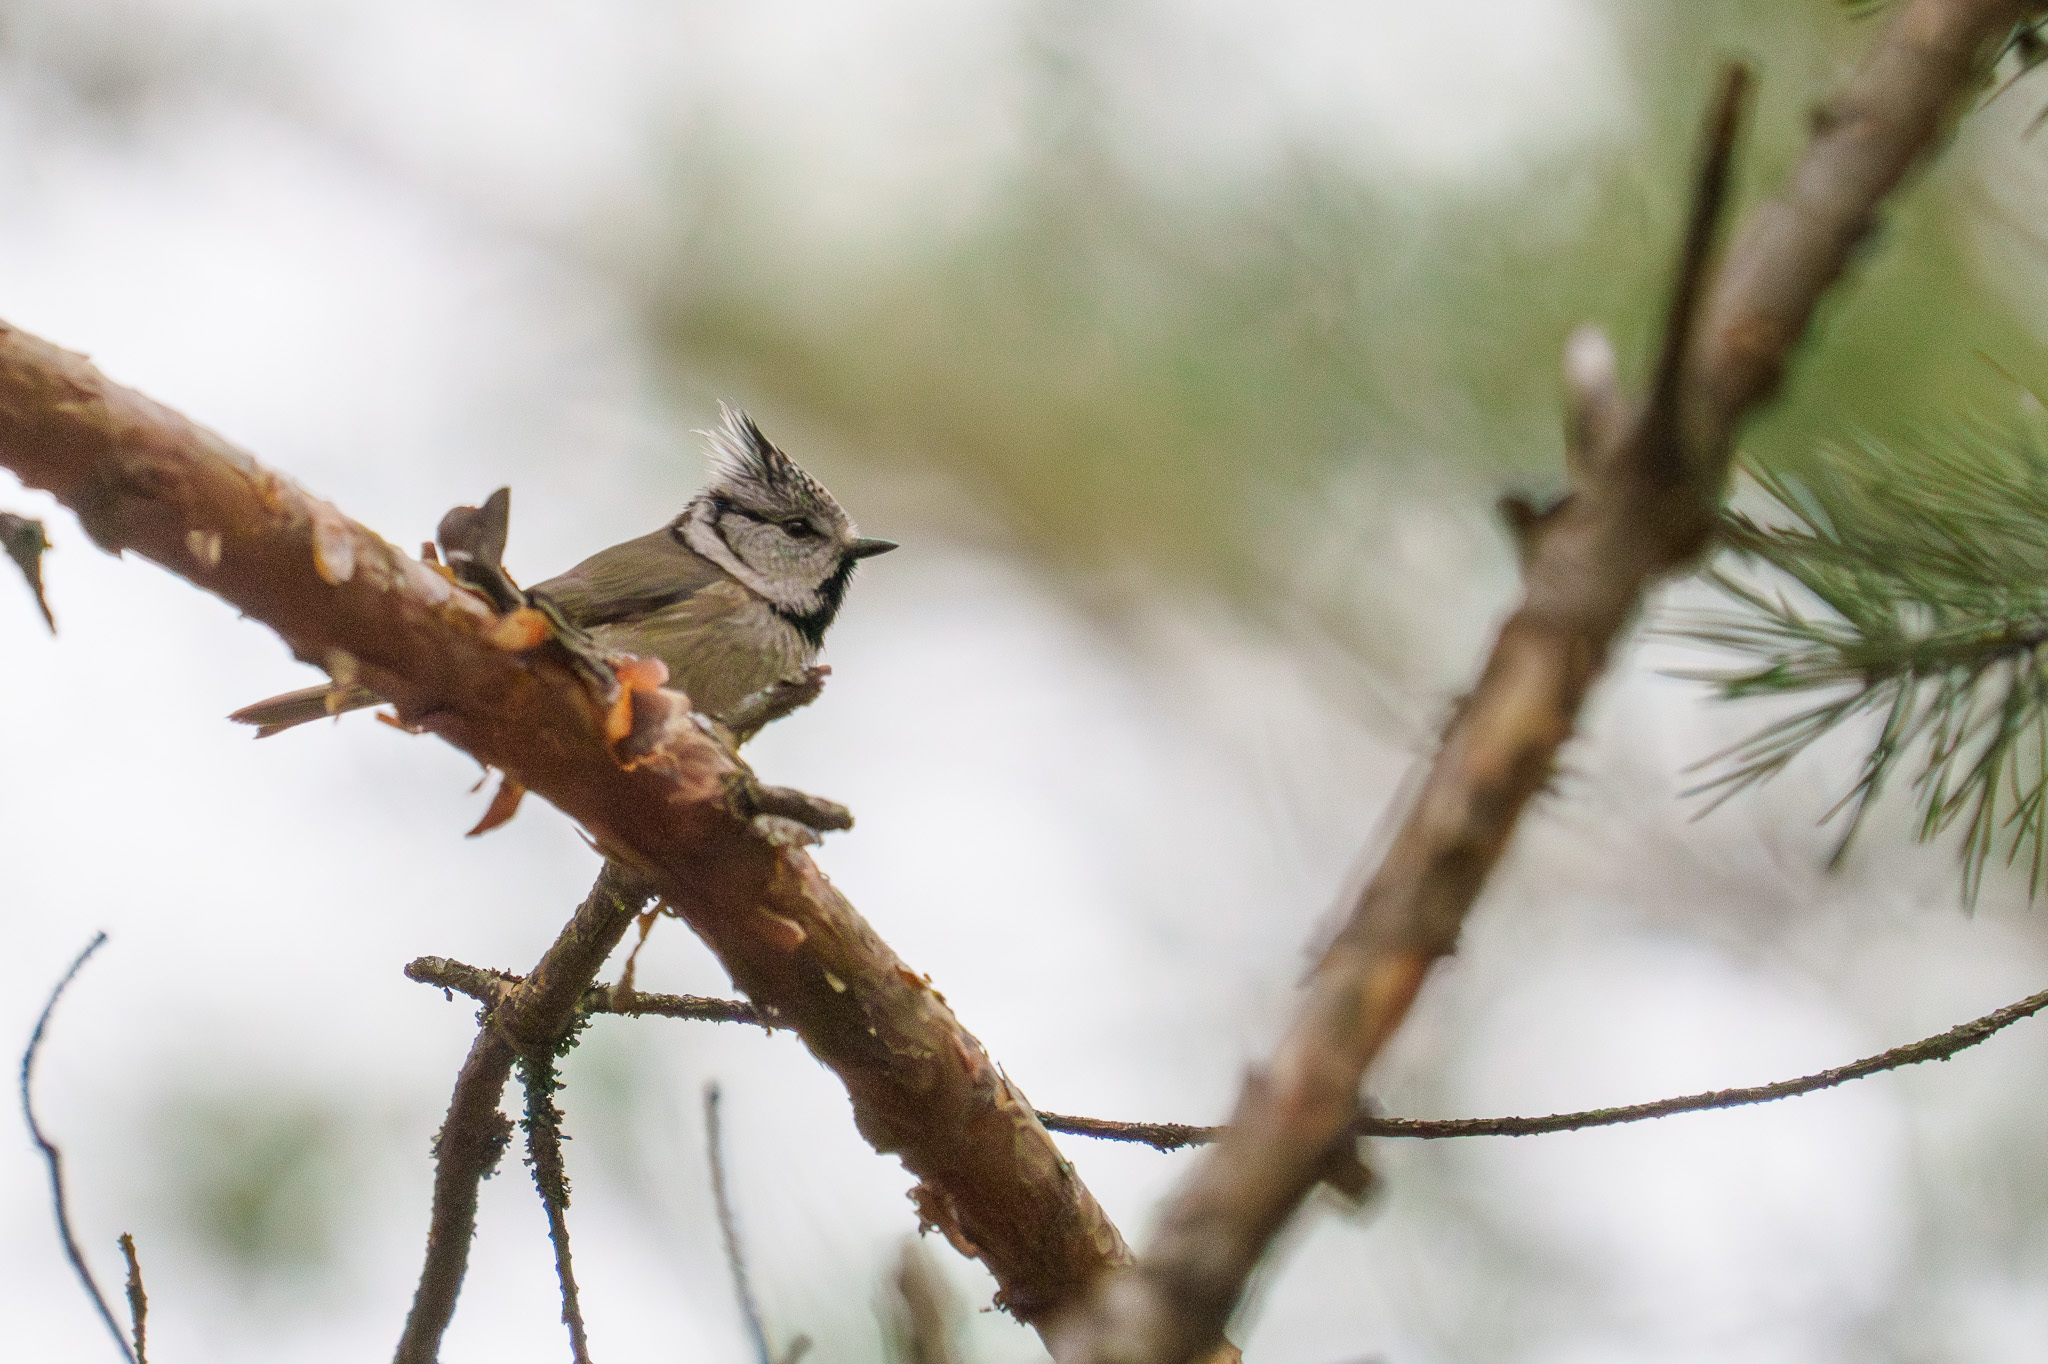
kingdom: Animalia
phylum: Chordata
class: Aves
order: Passeriformes
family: Paridae
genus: Lophophanes
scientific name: Lophophanes cristatus
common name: European crested tit
